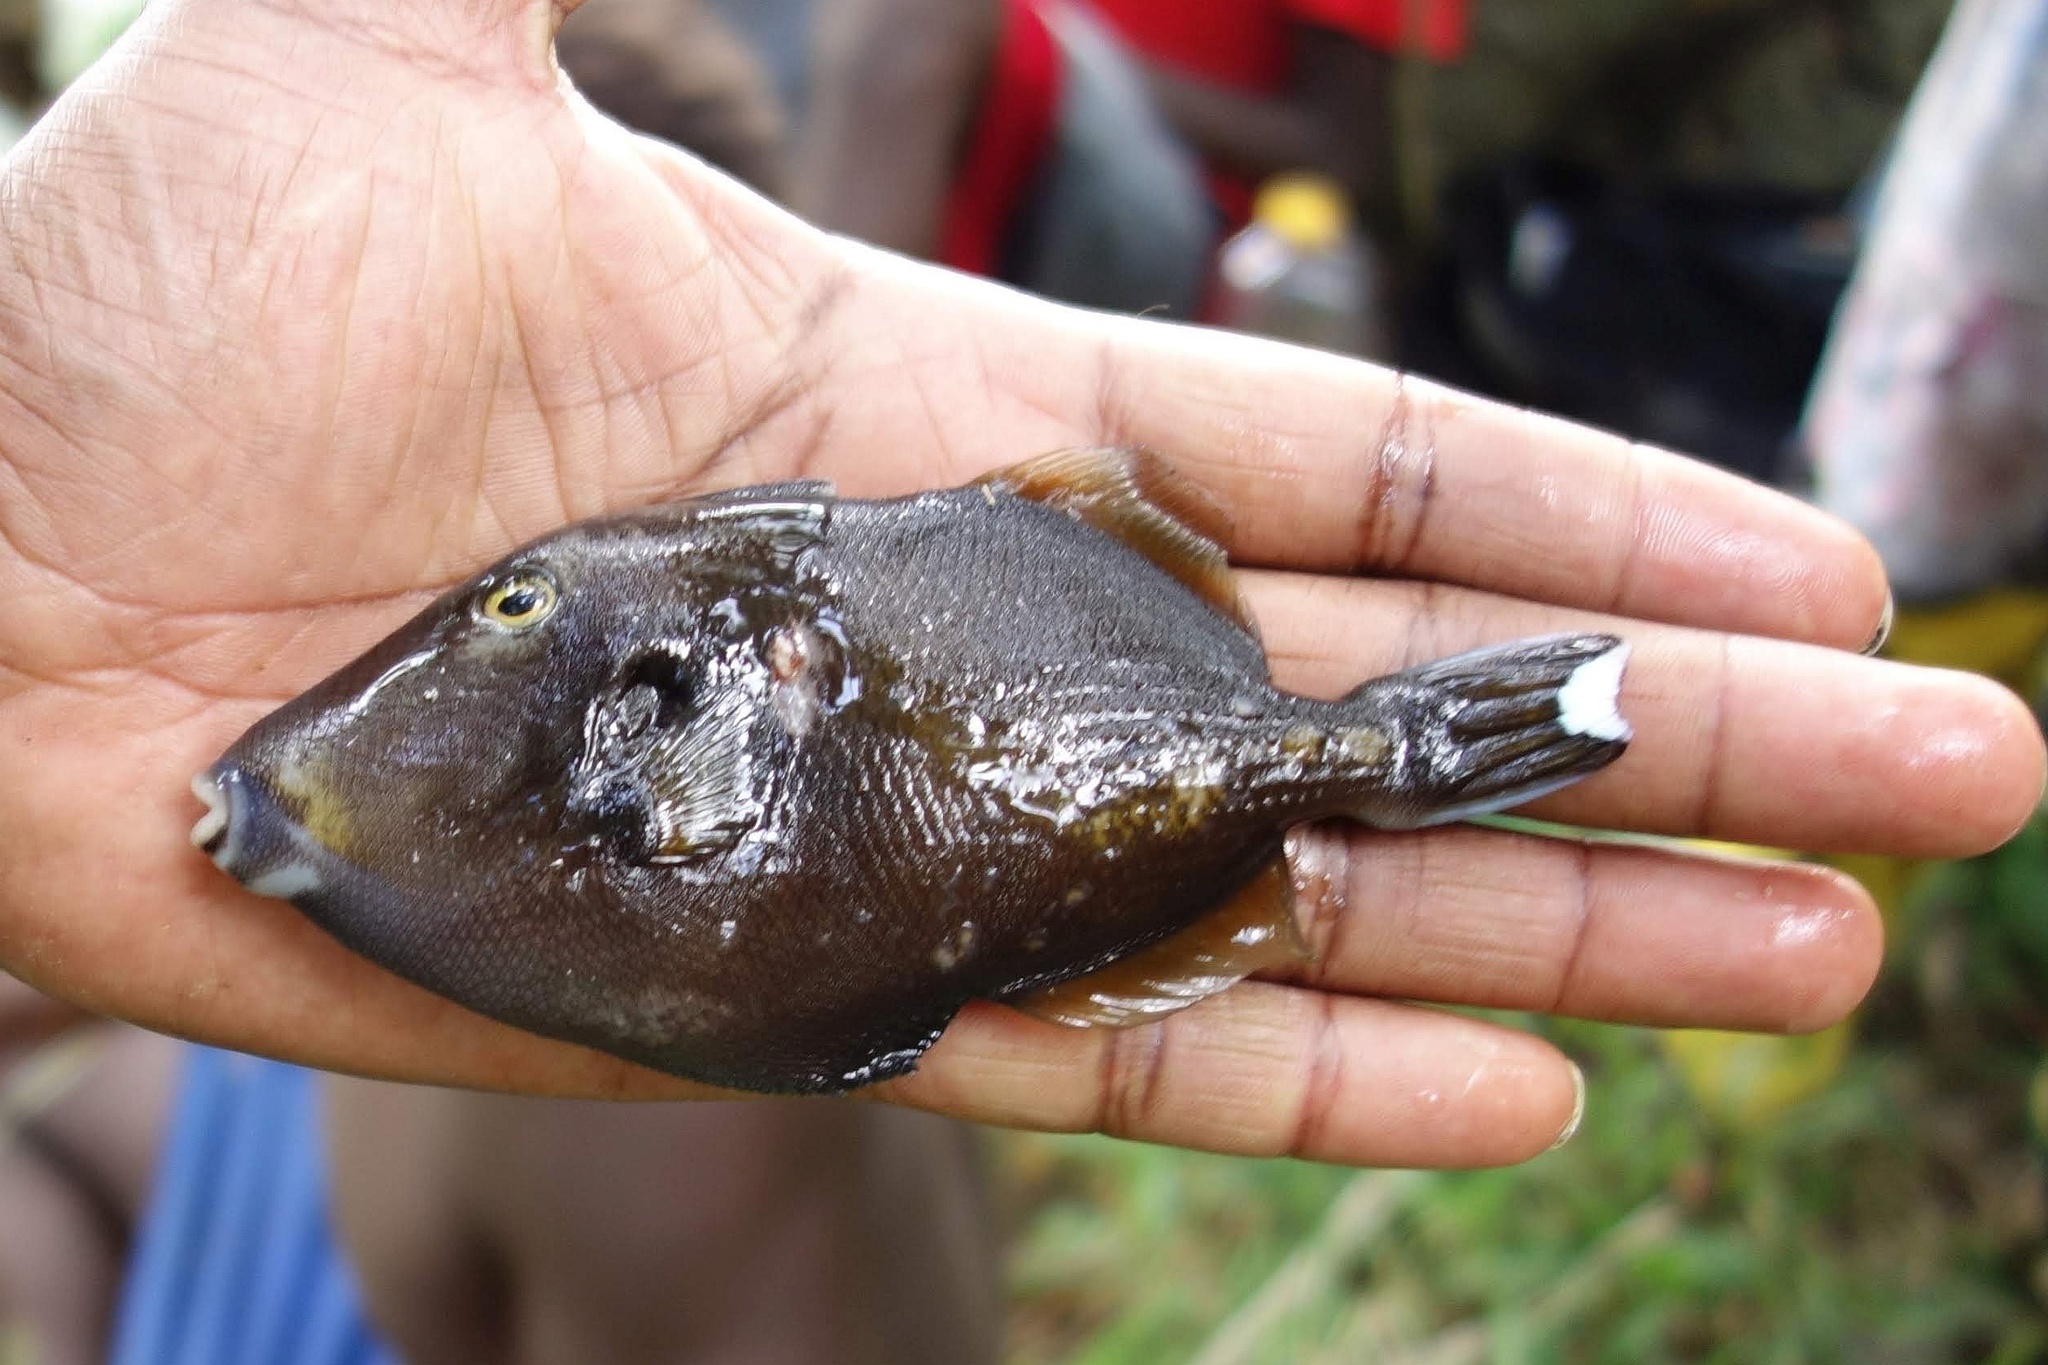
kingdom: Animalia
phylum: Chordata
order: Tetraodontiformes
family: Balistidae
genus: Sufflamen
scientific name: Sufflamen chrysopterum
